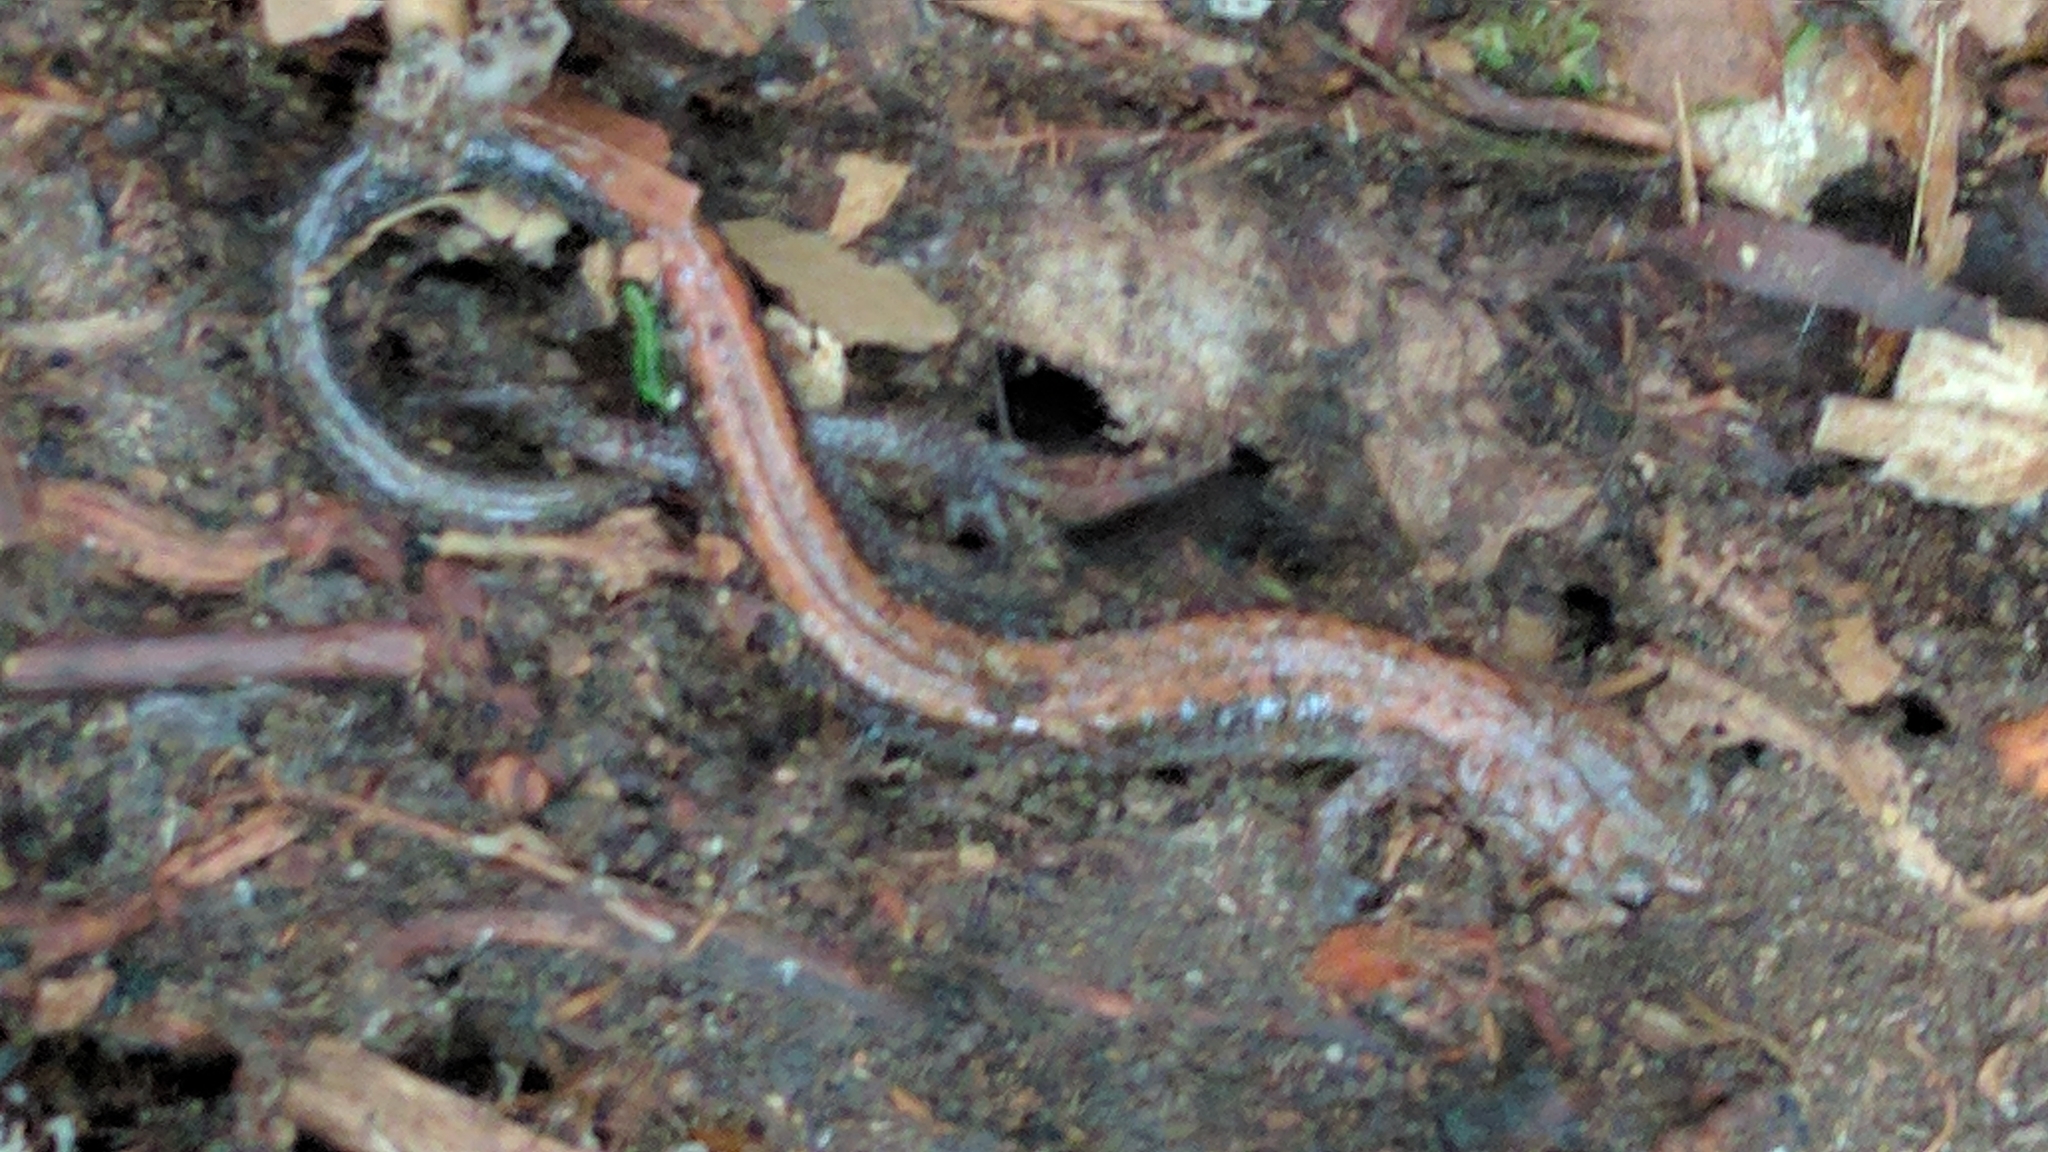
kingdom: Animalia
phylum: Chordata
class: Amphibia
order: Caudata
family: Plethodontidae
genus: Plethodon
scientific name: Plethodon cinereus
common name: Redback salamander
